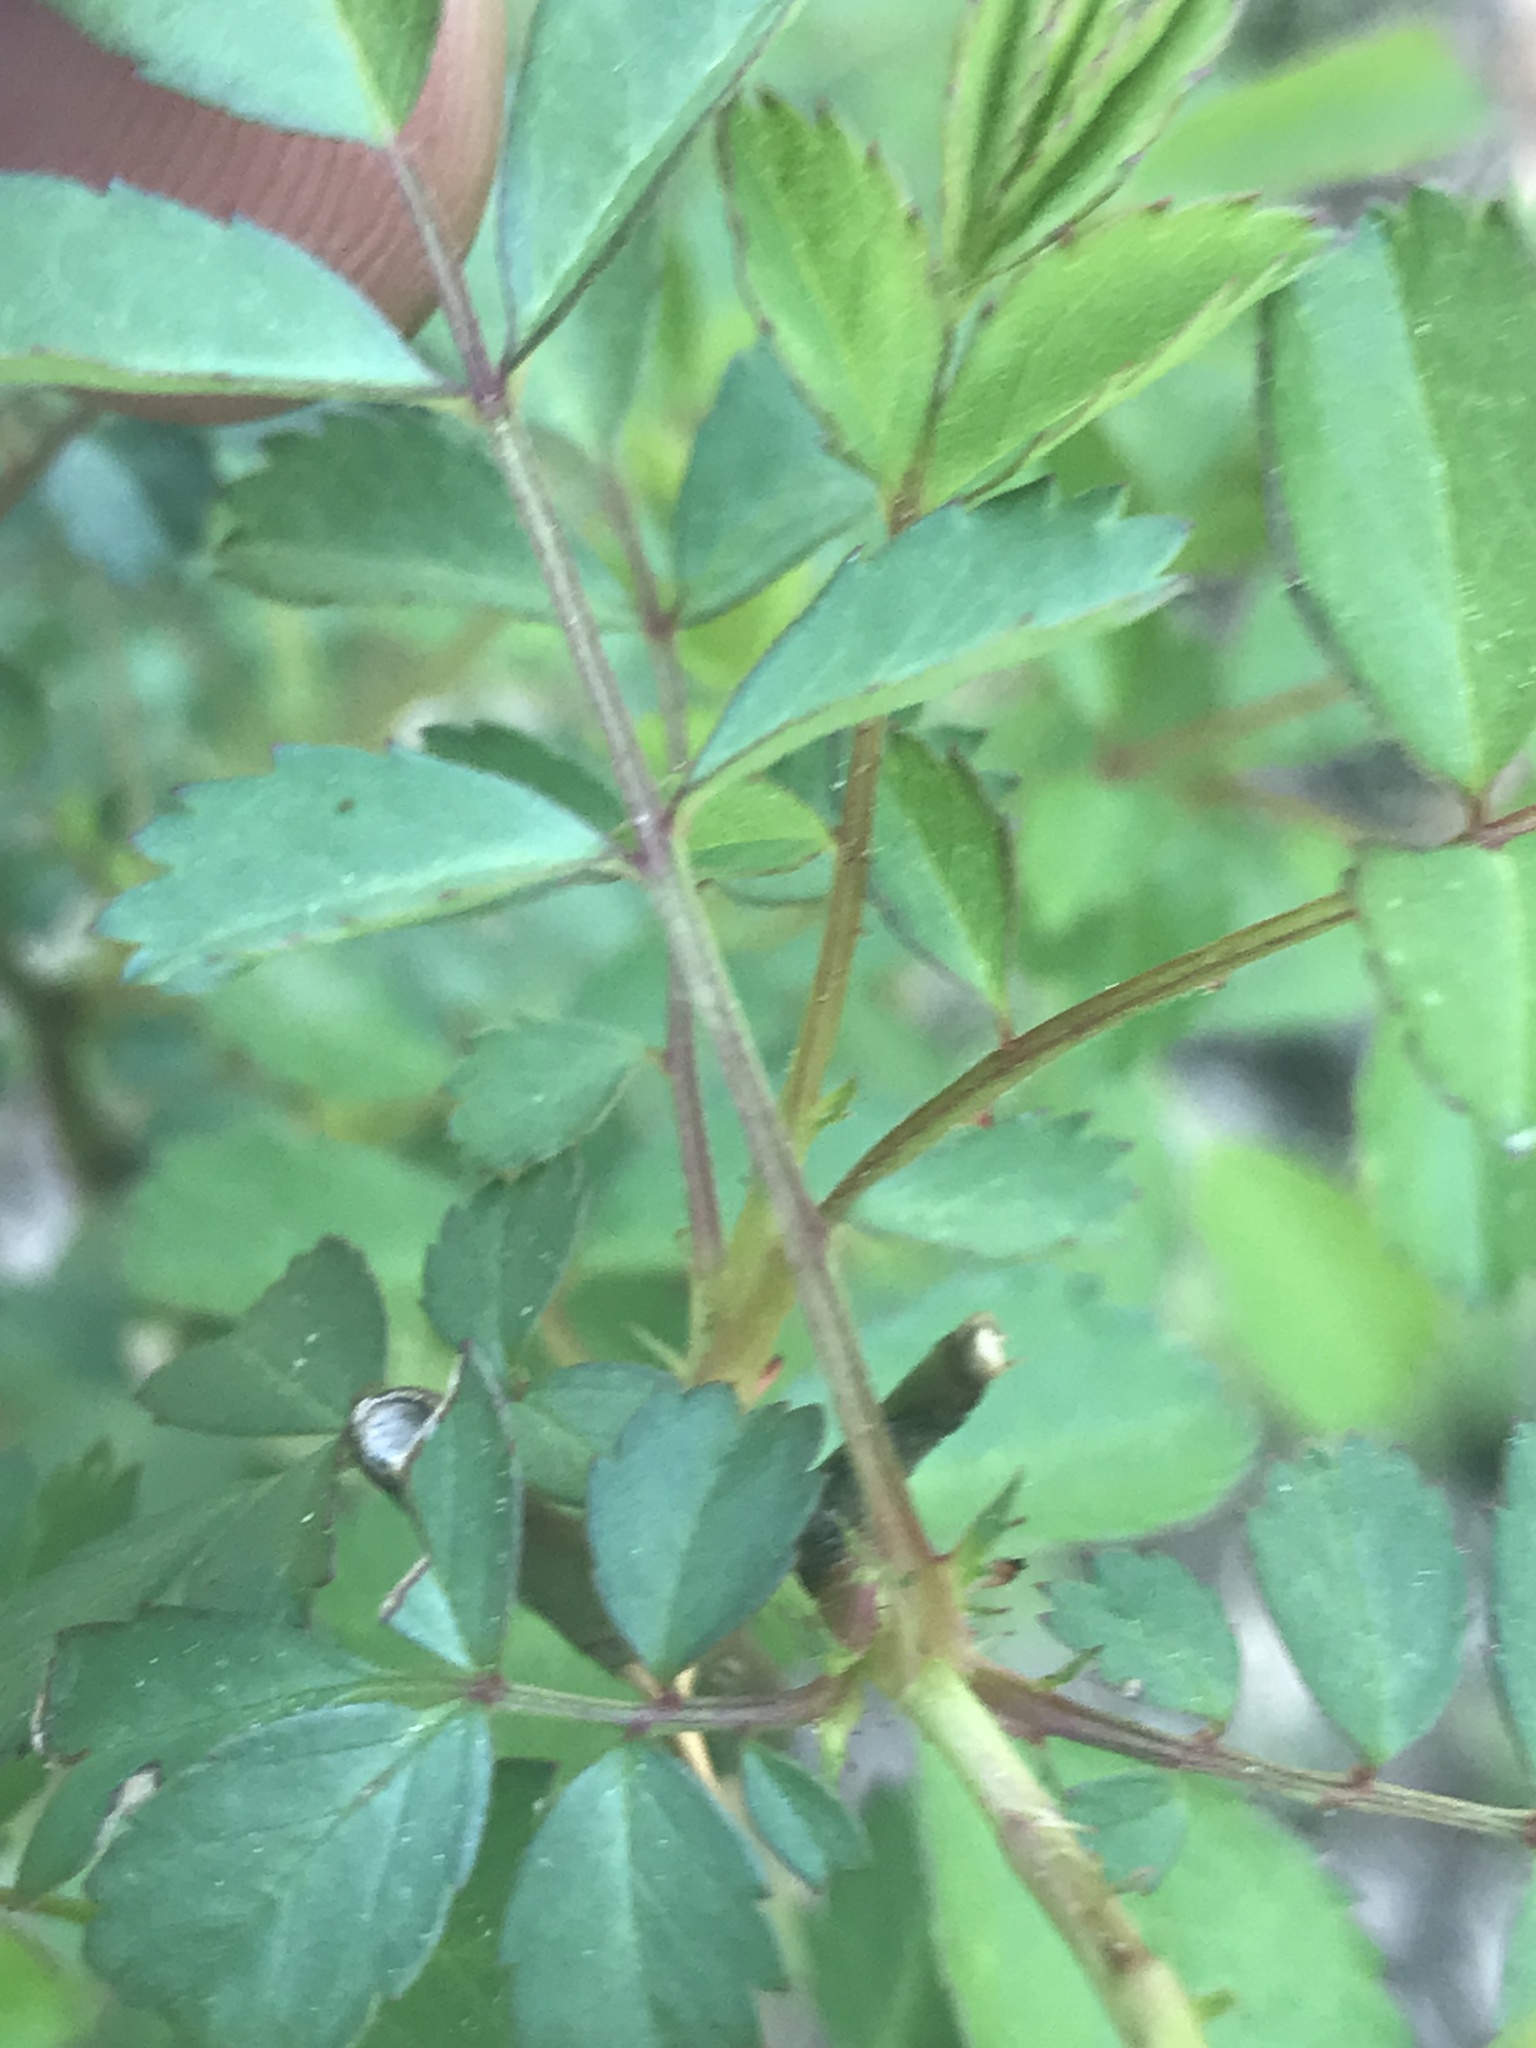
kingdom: Plantae
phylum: Tracheophyta
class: Magnoliopsida
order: Rosales
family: Rosaceae
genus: Rosa
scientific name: Rosa multiflora
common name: Multiflora rose
